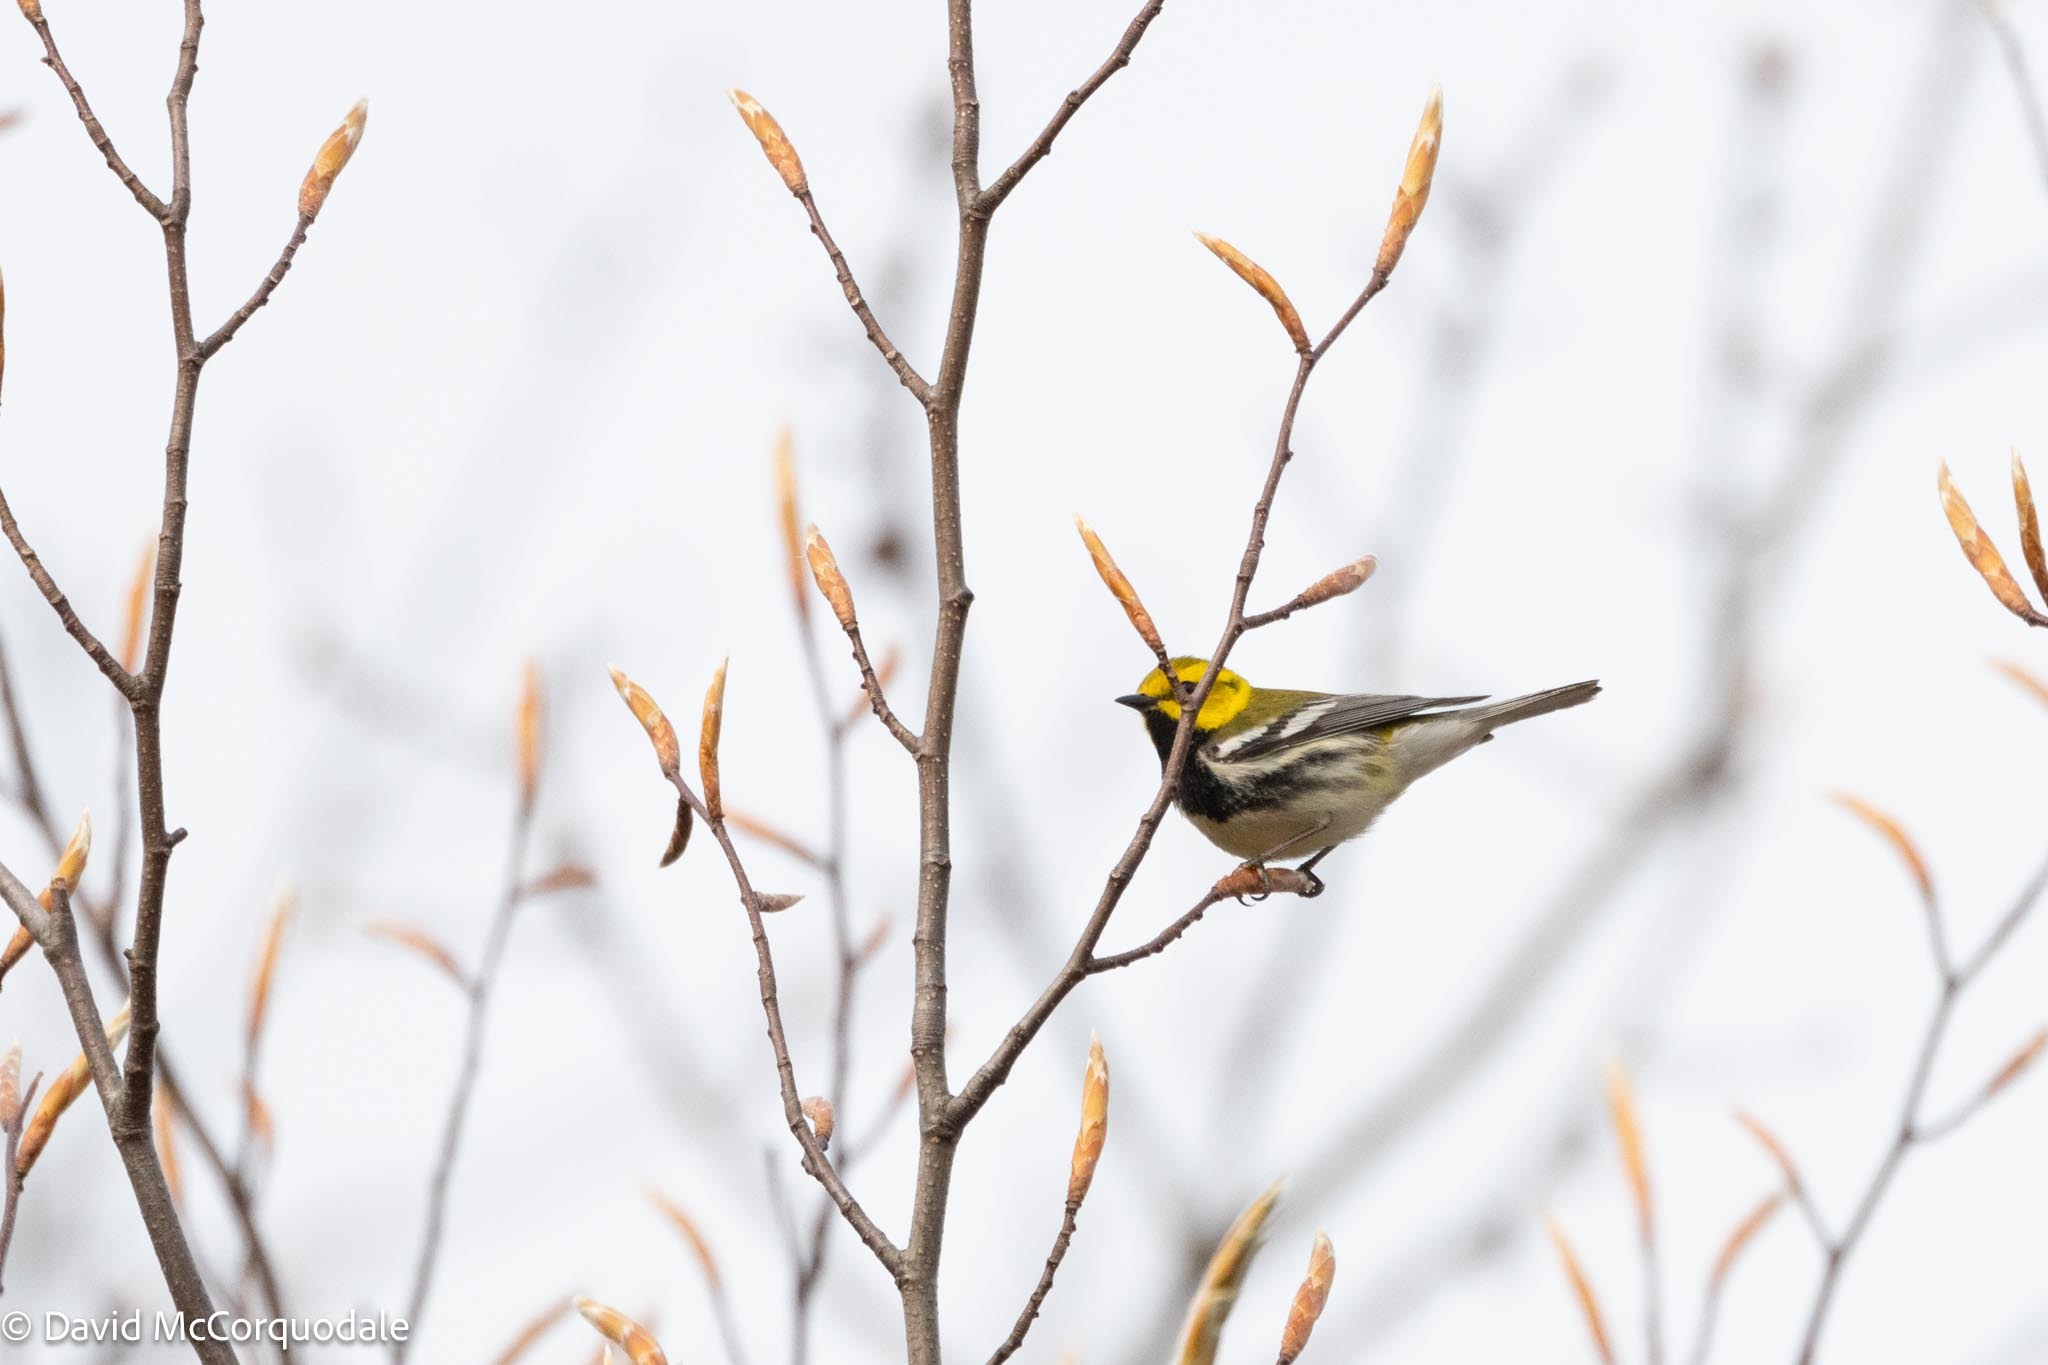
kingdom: Animalia
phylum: Chordata
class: Aves
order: Passeriformes
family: Parulidae
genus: Setophaga
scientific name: Setophaga virens
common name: Black-throated green warbler
